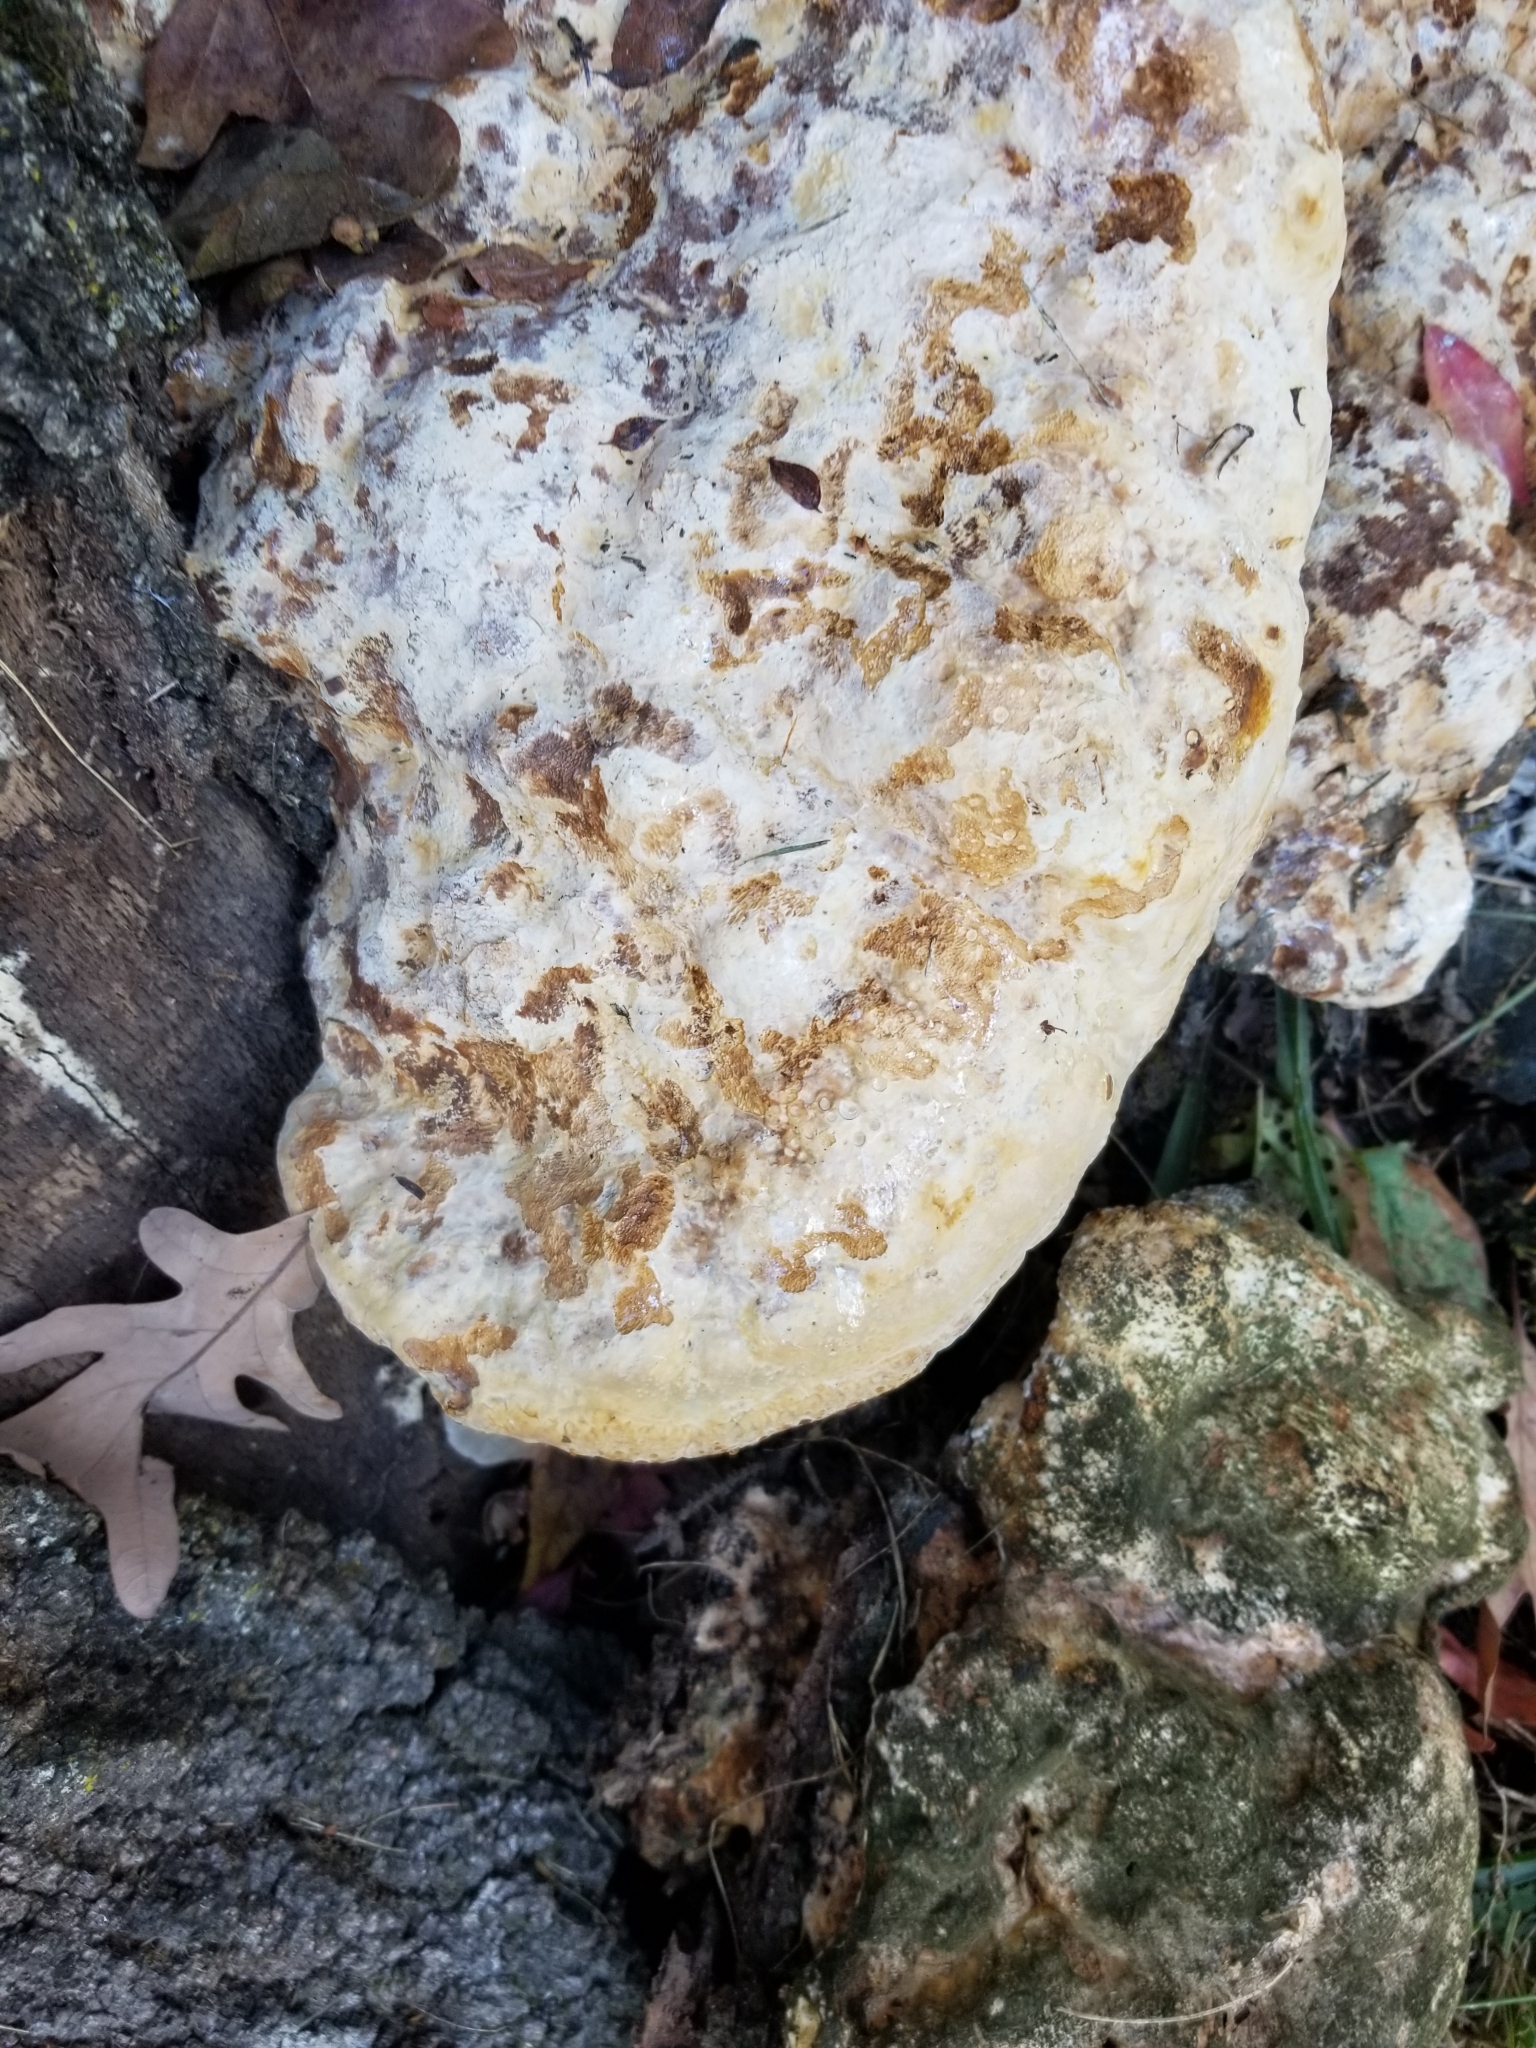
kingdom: Fungi
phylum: Basidiomycota
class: Agaricomycetes
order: Hymenochaetales
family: Hymenochaetaceae
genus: Pseudoinonotus
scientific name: Pseudoinonotus dryadeus
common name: Oak bracket
